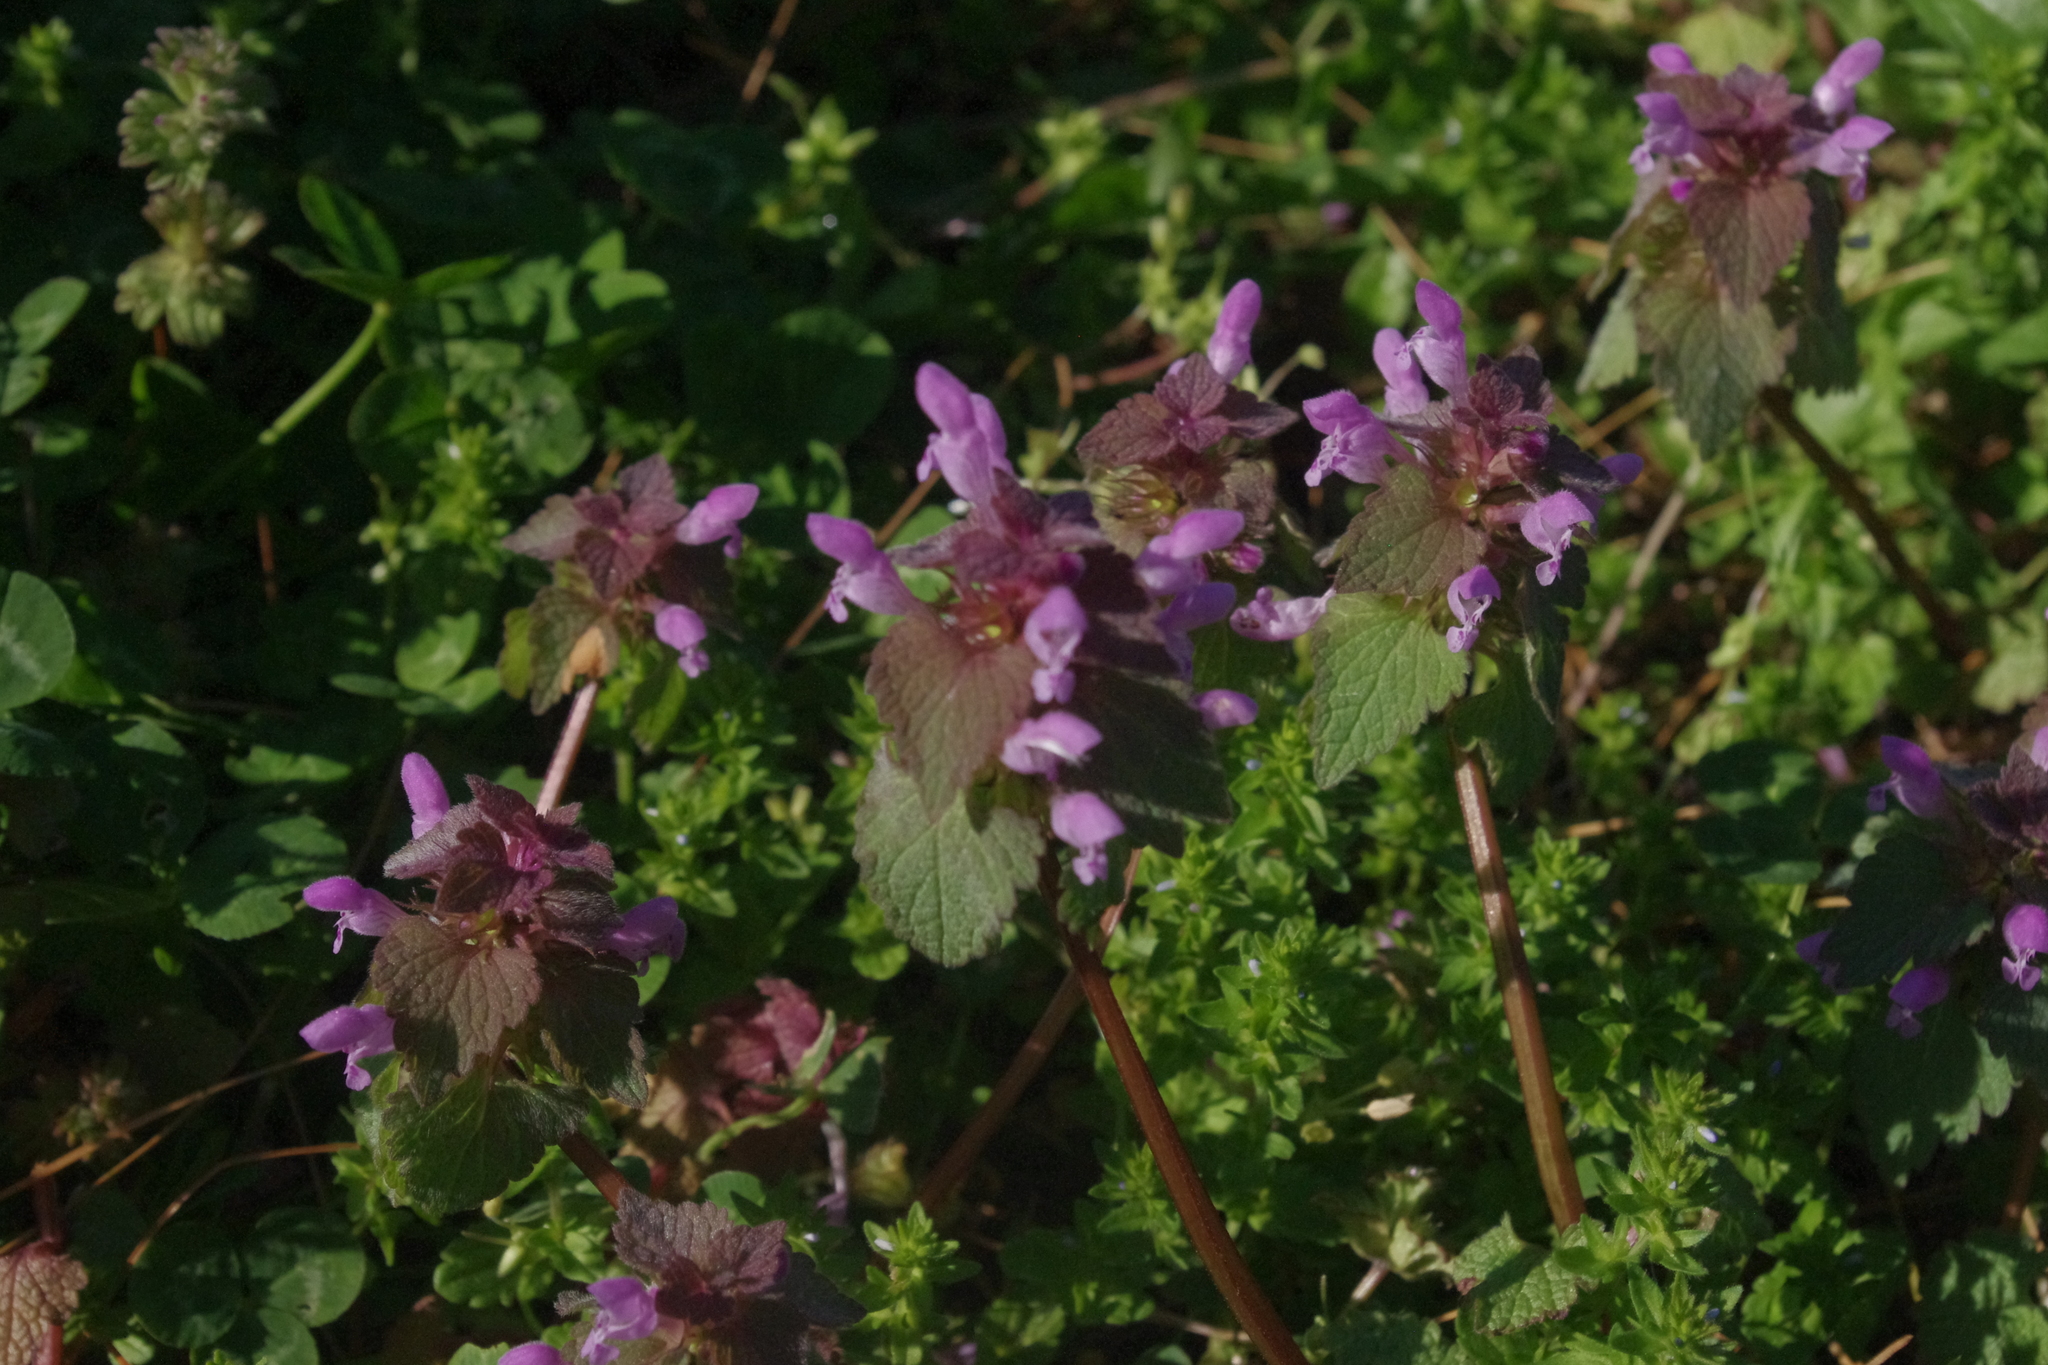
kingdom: Plantae
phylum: Tracheophyta
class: Magnoliopsida
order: Lamiales
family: Lamiaceae
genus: Lamium
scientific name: Lamium purpureum
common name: Red dead-nettle
